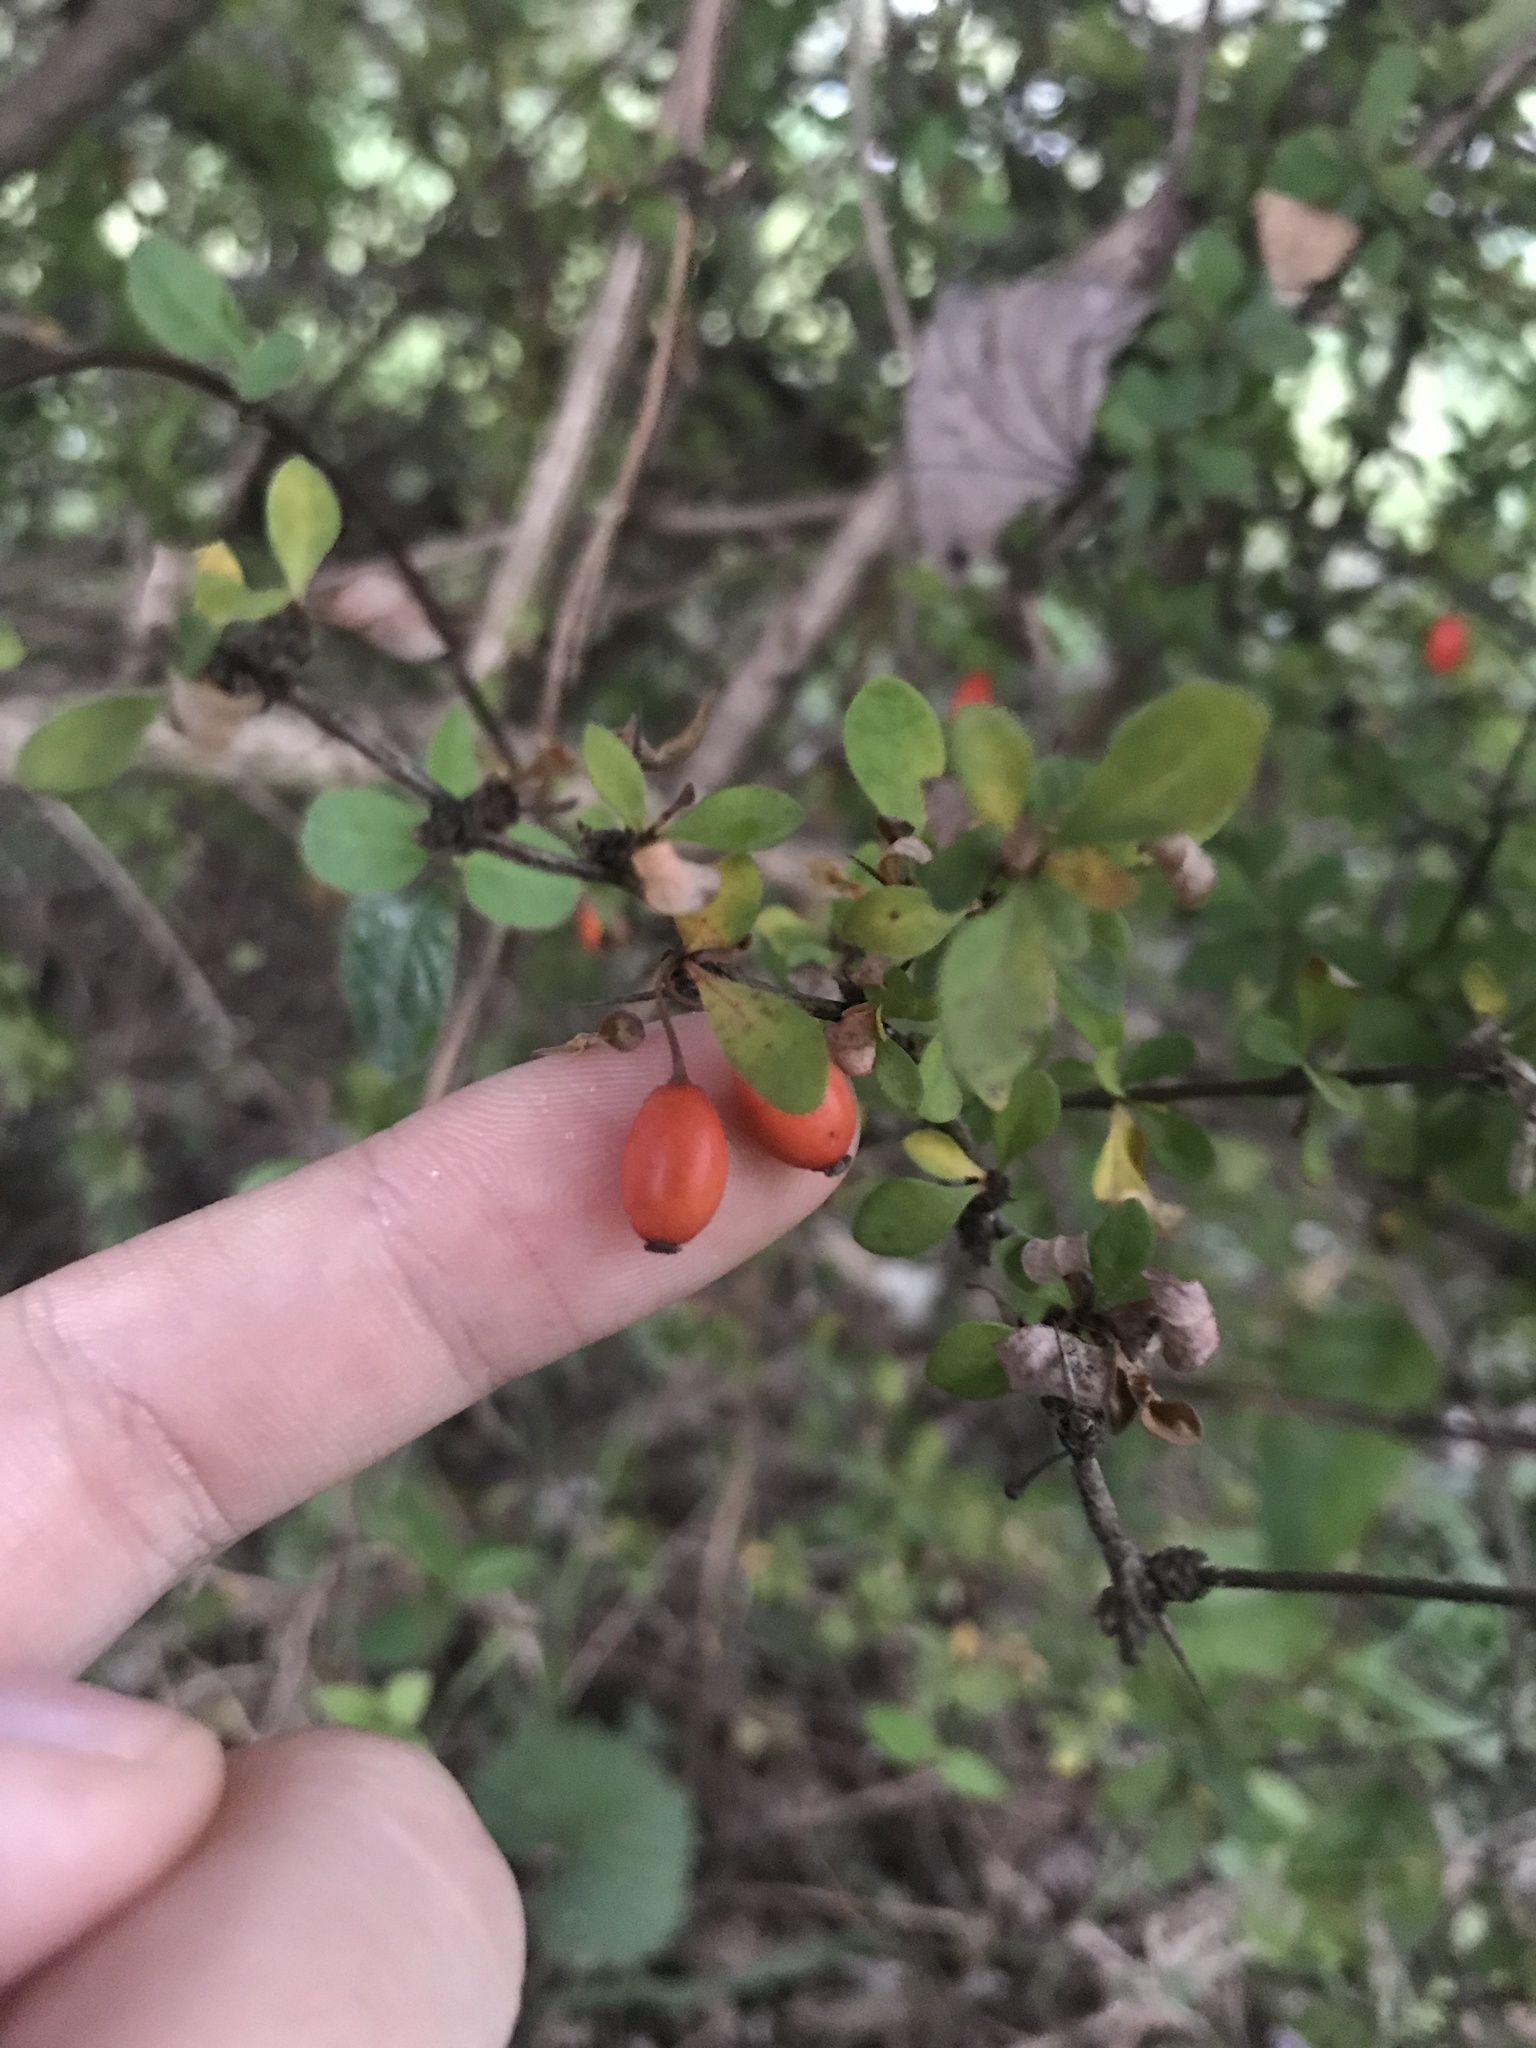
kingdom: Plantae
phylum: Tracheophyta
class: Magnoliopsida
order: Ranunculales
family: Berberidaceae
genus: Berberis
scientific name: Berberis thunbergii
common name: Japanese barberry
